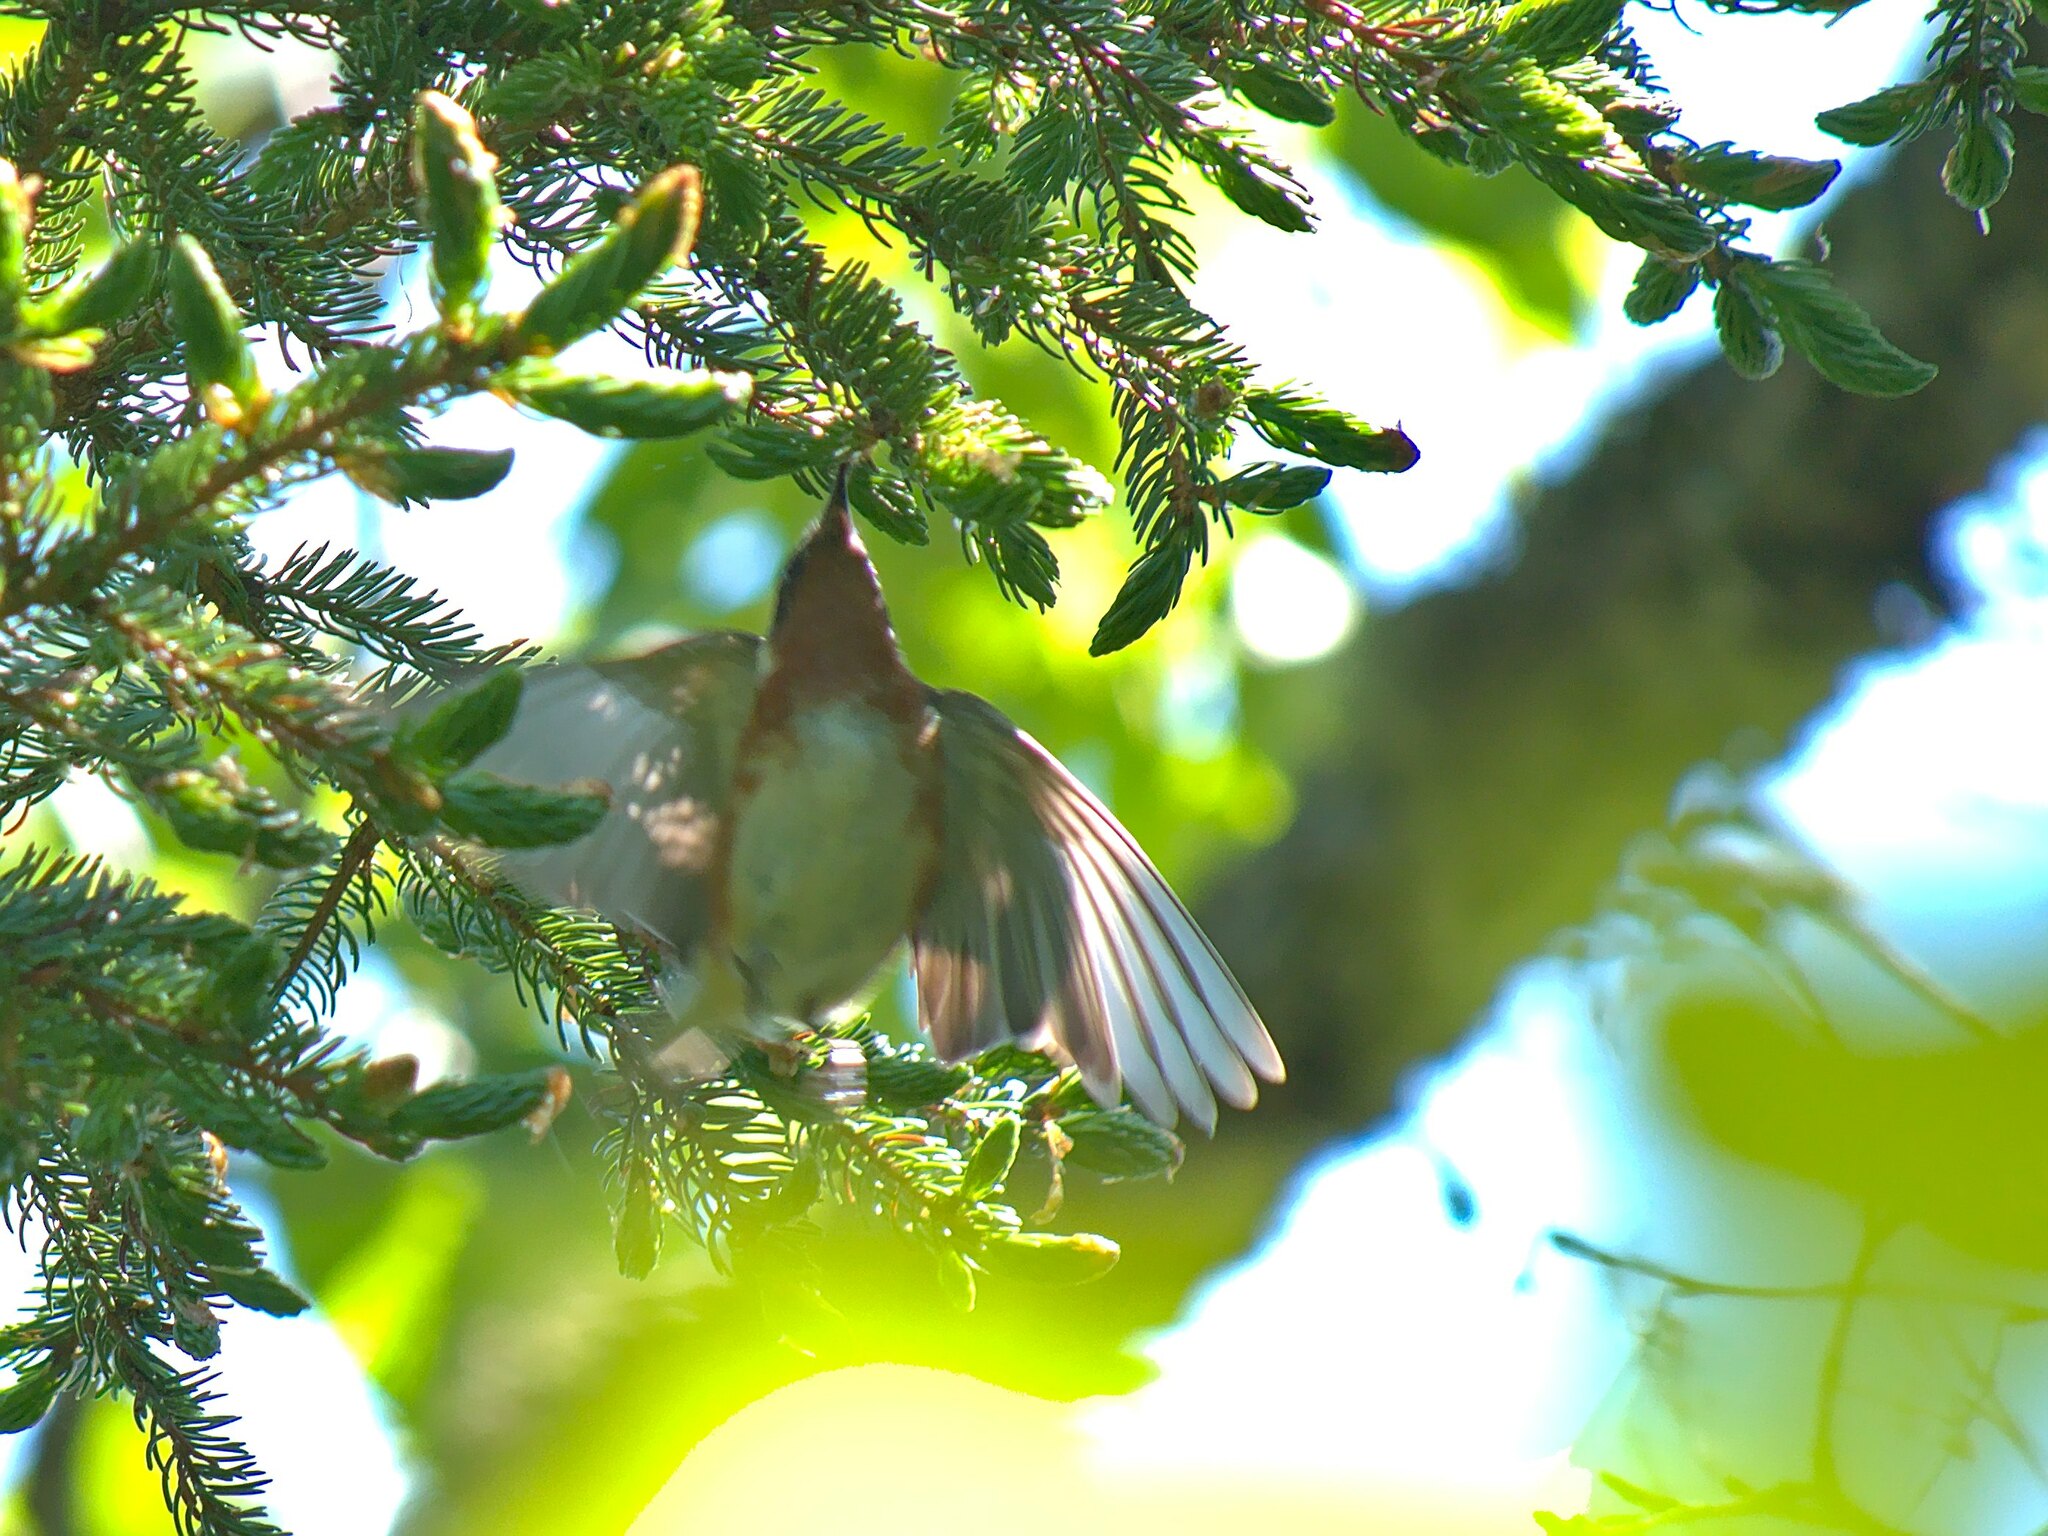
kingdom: Animalia
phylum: Chordata
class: Aves
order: Passeriformes
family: Parulidae
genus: Setophaga
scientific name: Setophaga castanea
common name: Bay-breasted warbler
